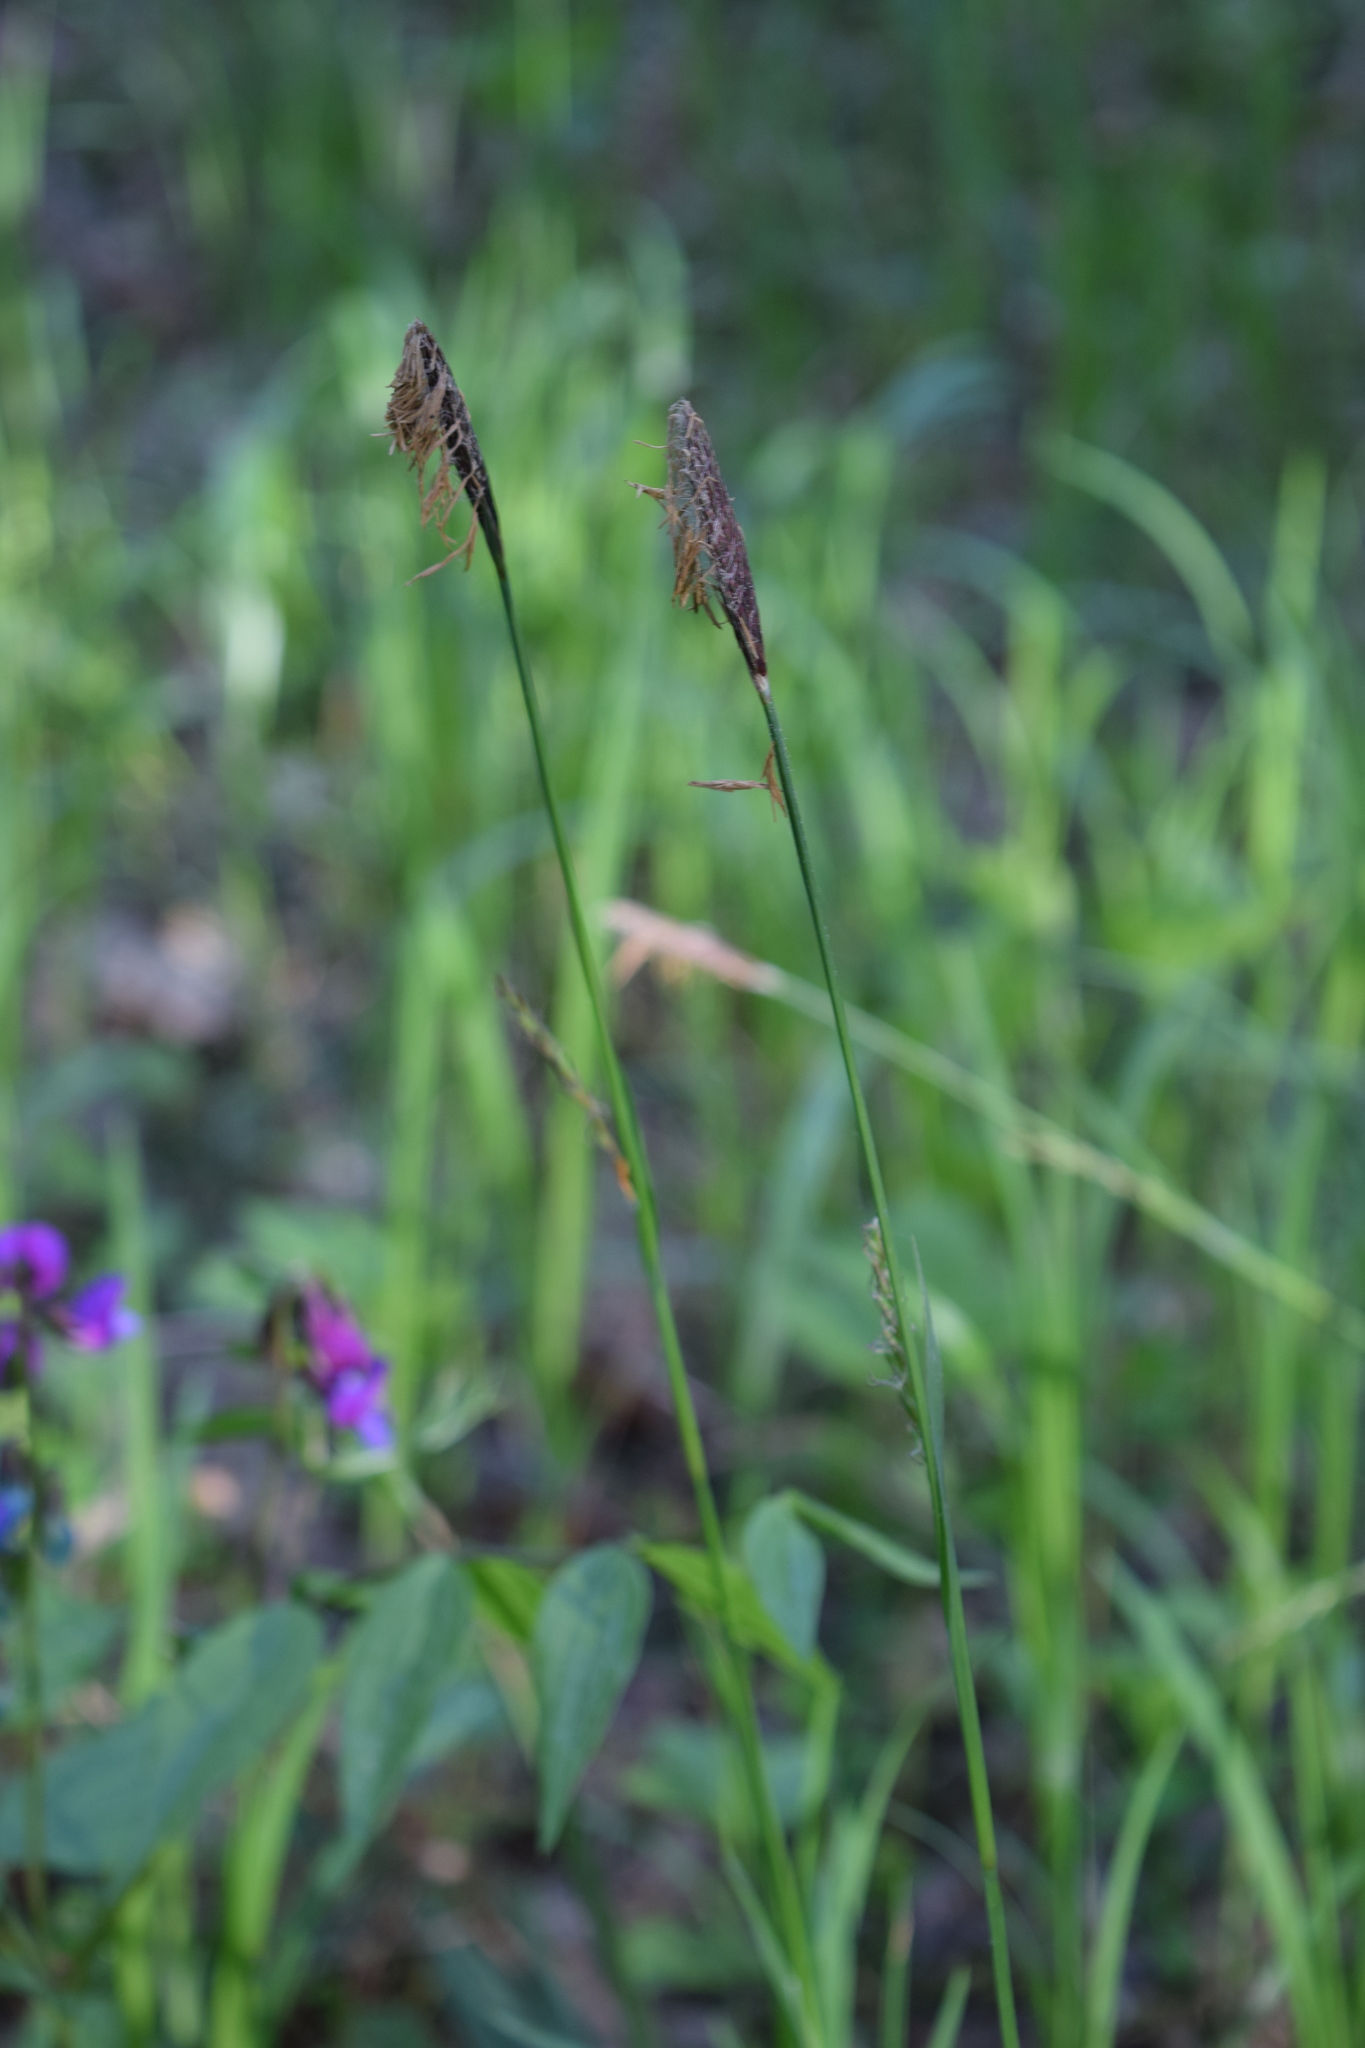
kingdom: Plantae
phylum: Tracheophyta
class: Liliopsida
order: Poales
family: Cyperaceae
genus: Carex
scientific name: Carex pilosa
